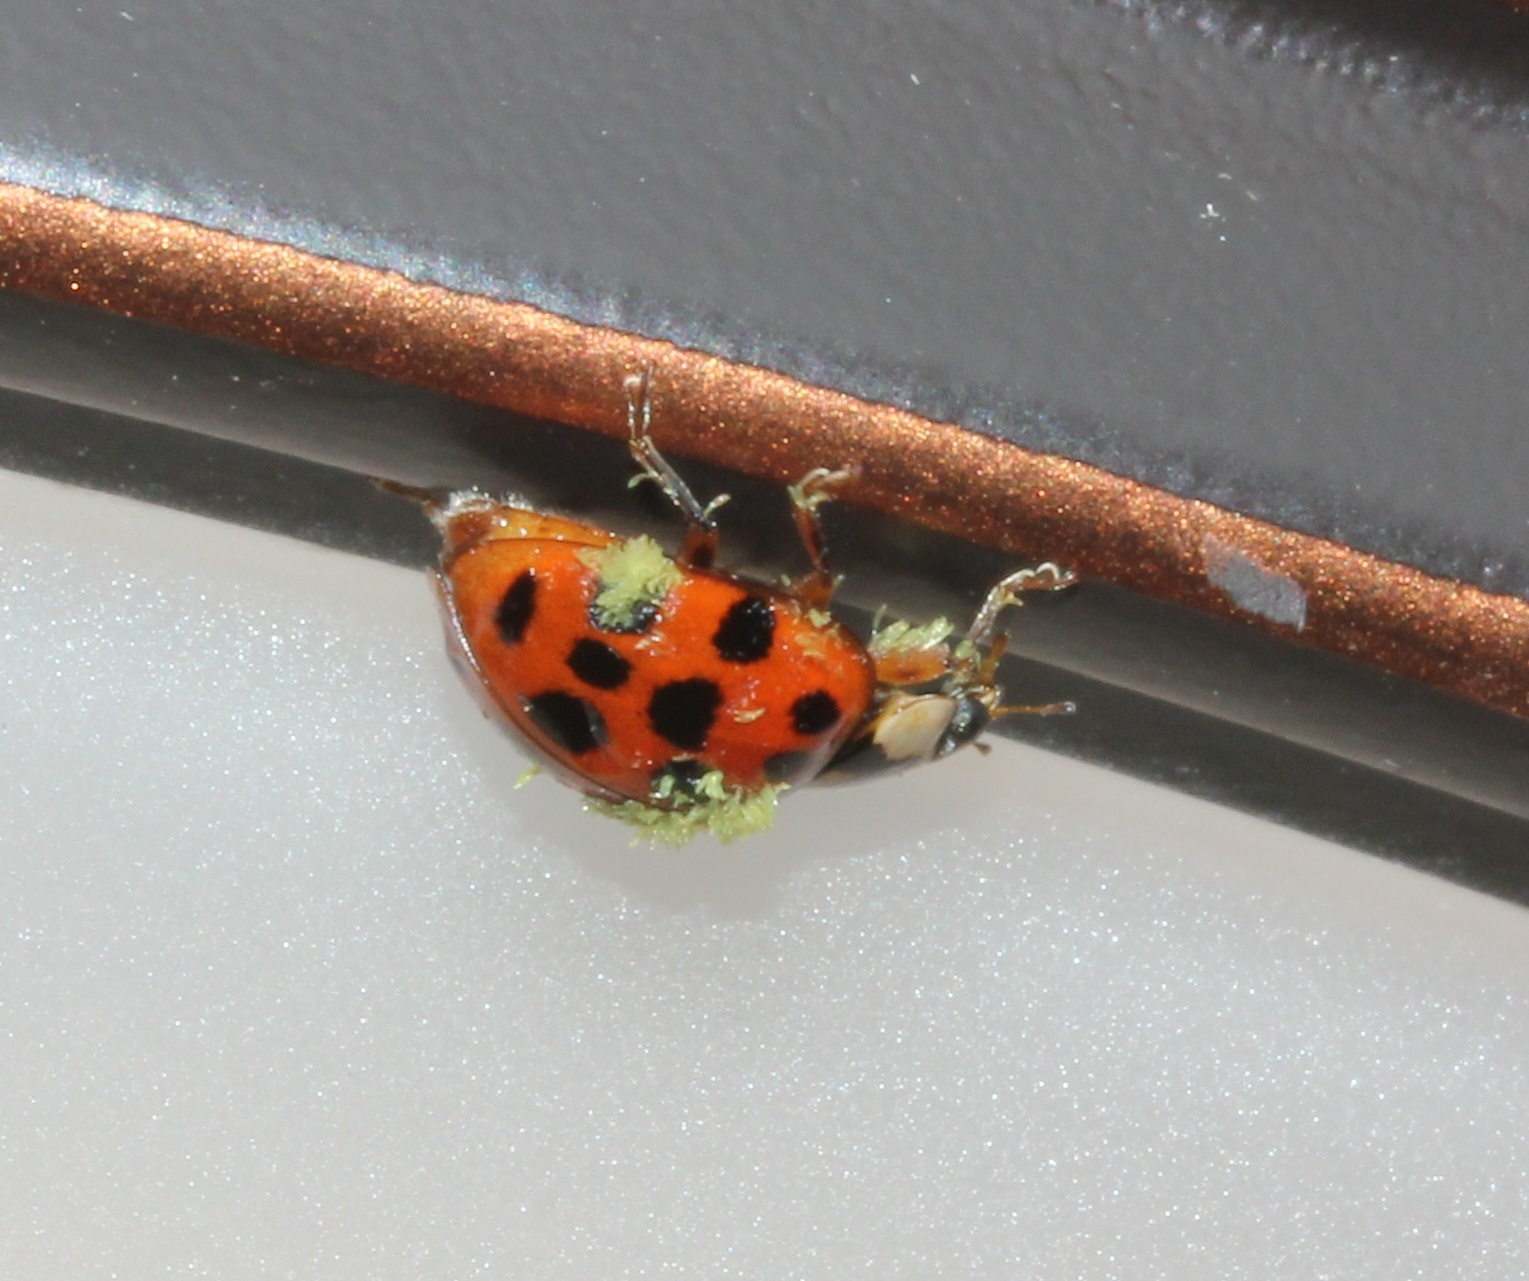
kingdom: Animalia
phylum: Arthropoda
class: Insecta
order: Coleoptera
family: Coccinellidae
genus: Harmonia
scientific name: Harmonia axyridis
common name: Harlequin ladybird
